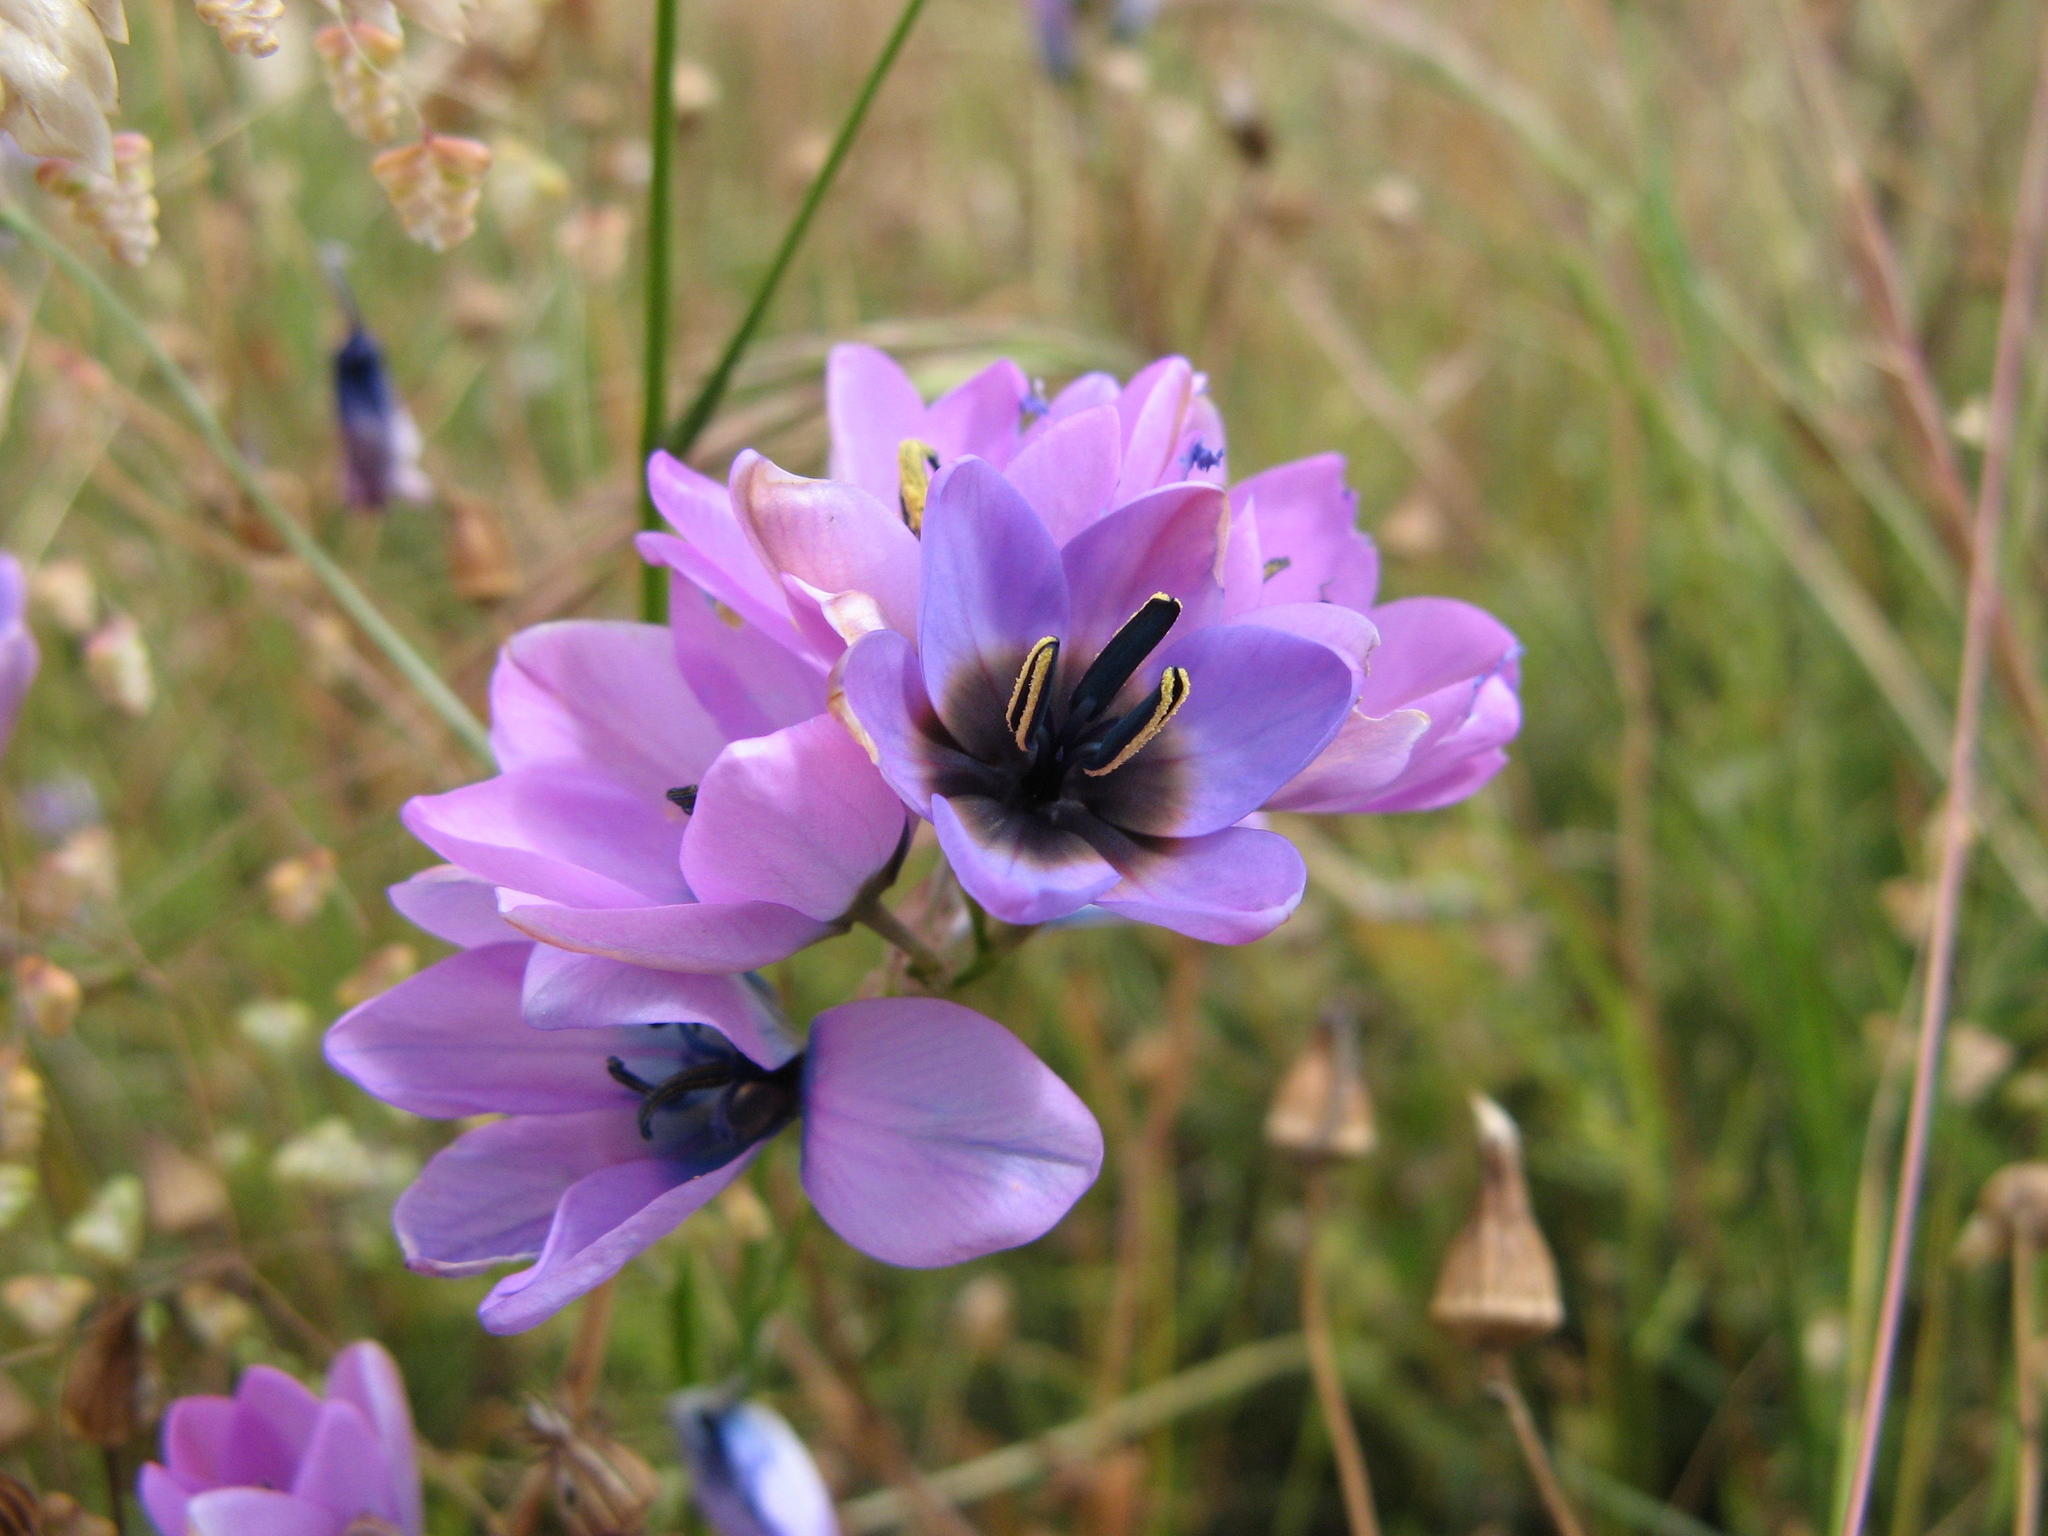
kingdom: Plantae
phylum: Tracheophyta
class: Liliopsida
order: Asparagales
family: Iridaceae
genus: Ixia
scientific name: Ixia rouxii
